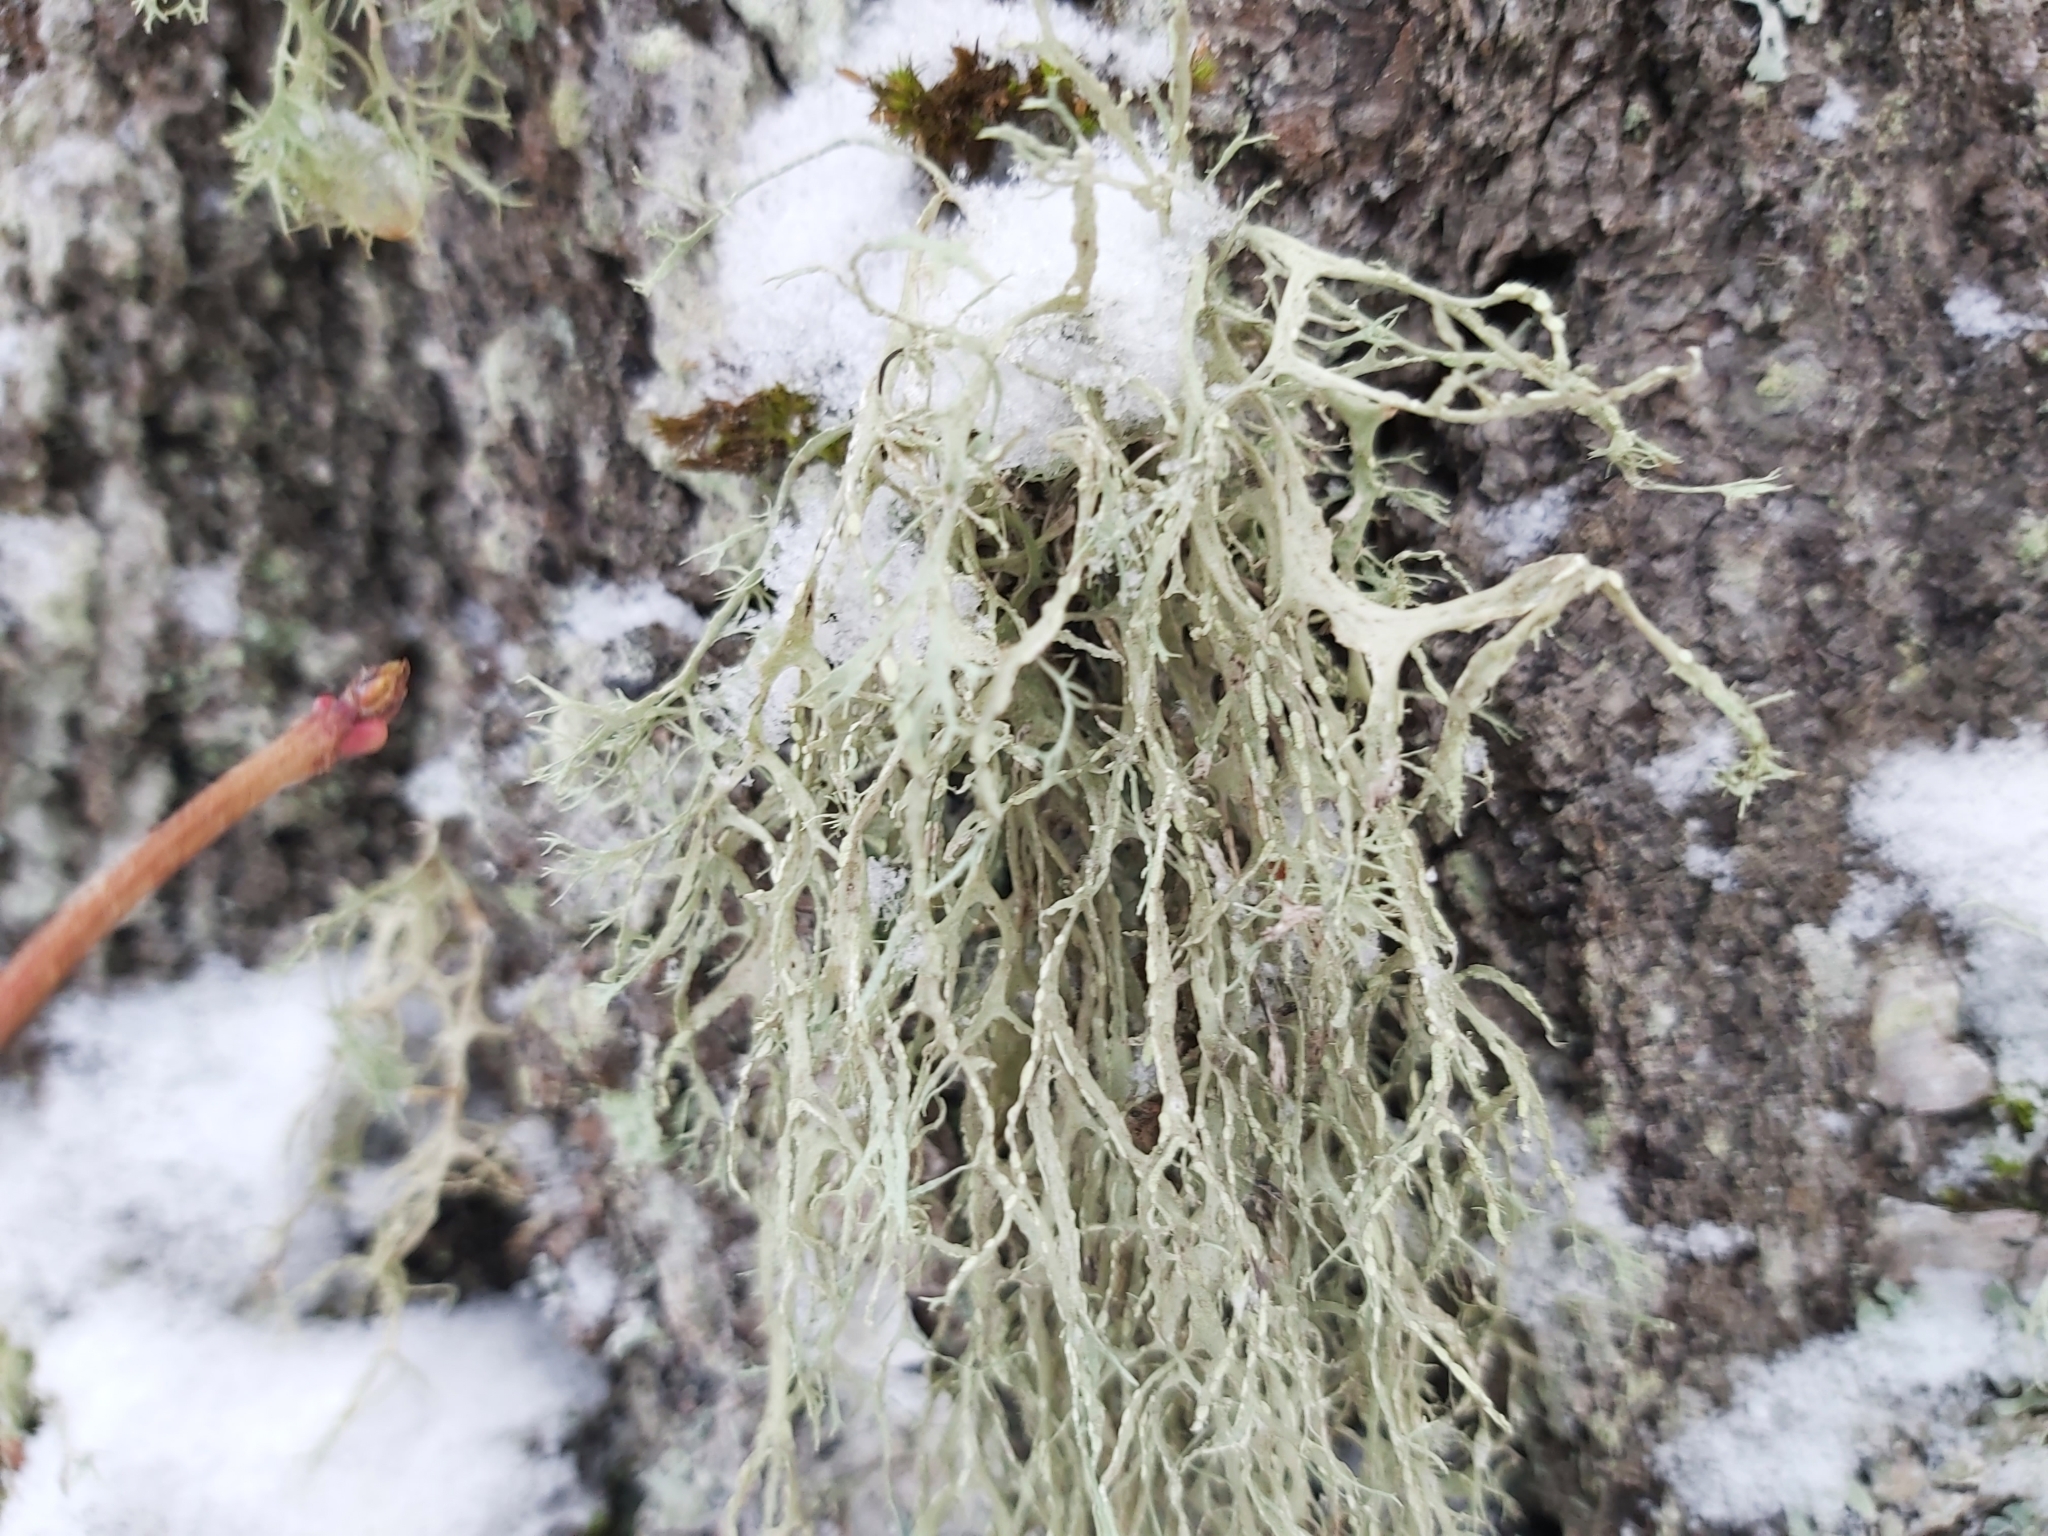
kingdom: Fungi
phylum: Ascomycota
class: Lecanoromycetes
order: Lecanorales
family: Ramalinaceae
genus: Ramalina
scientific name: Ramalina farinacea
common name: Farinose cartilage lichen
